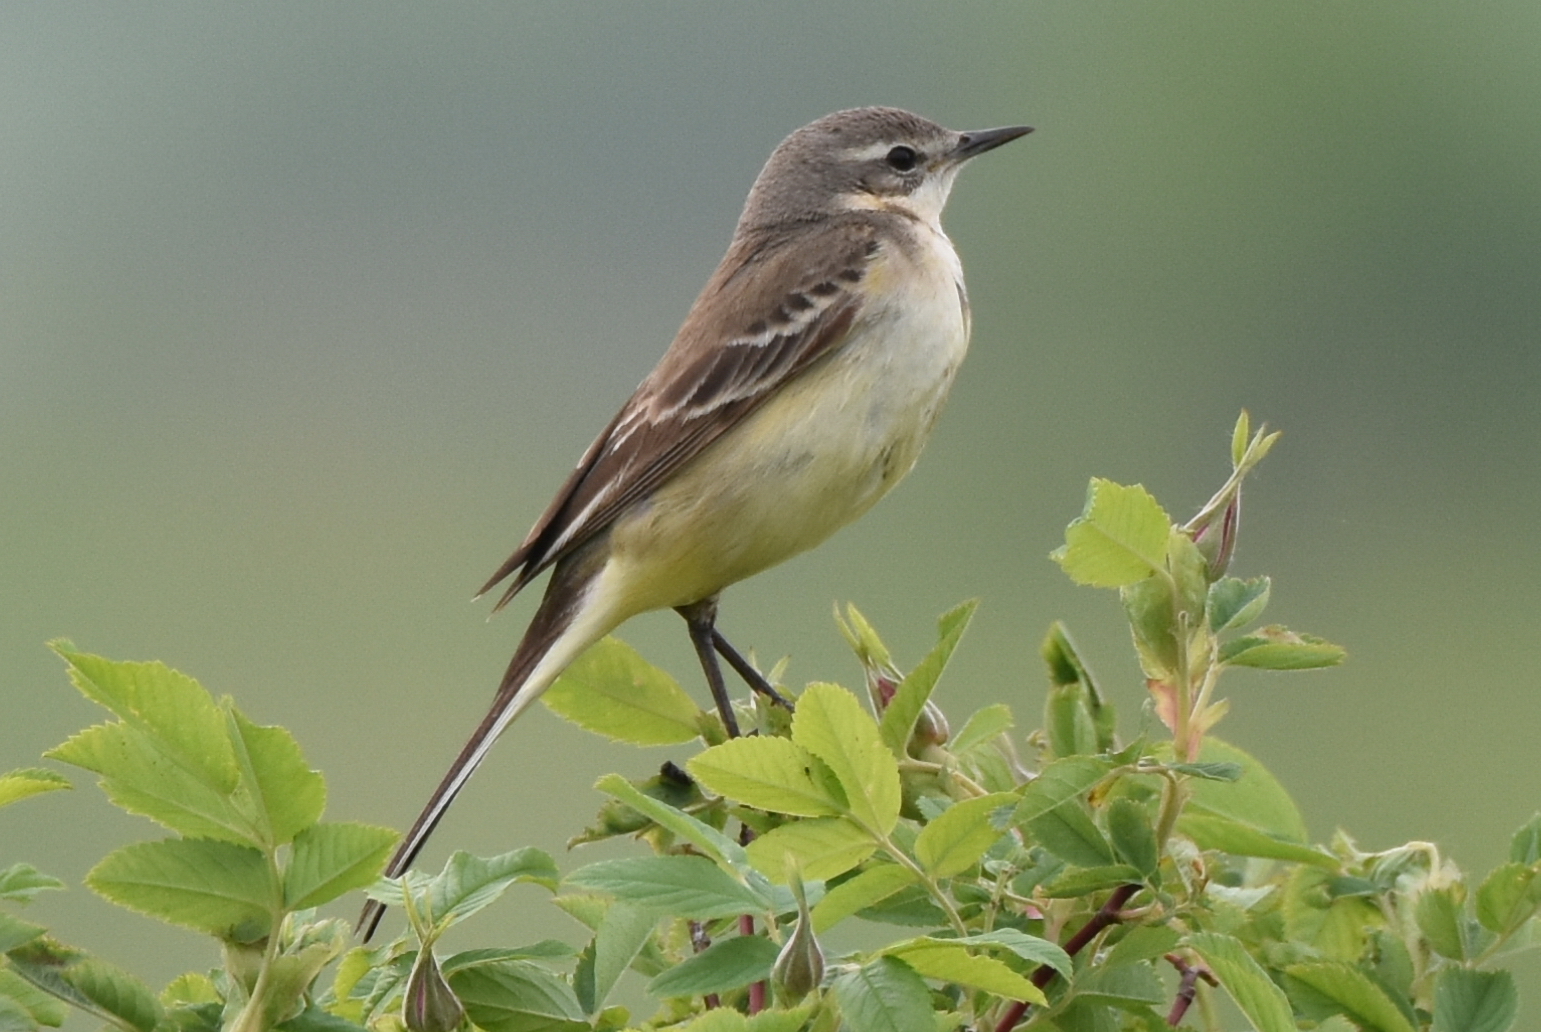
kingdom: Animalia
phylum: Chordata
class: Aves
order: Passeriformes
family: Motacillidae
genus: Motacilla
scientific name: Motacilla flava
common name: Western yellow wagtail
